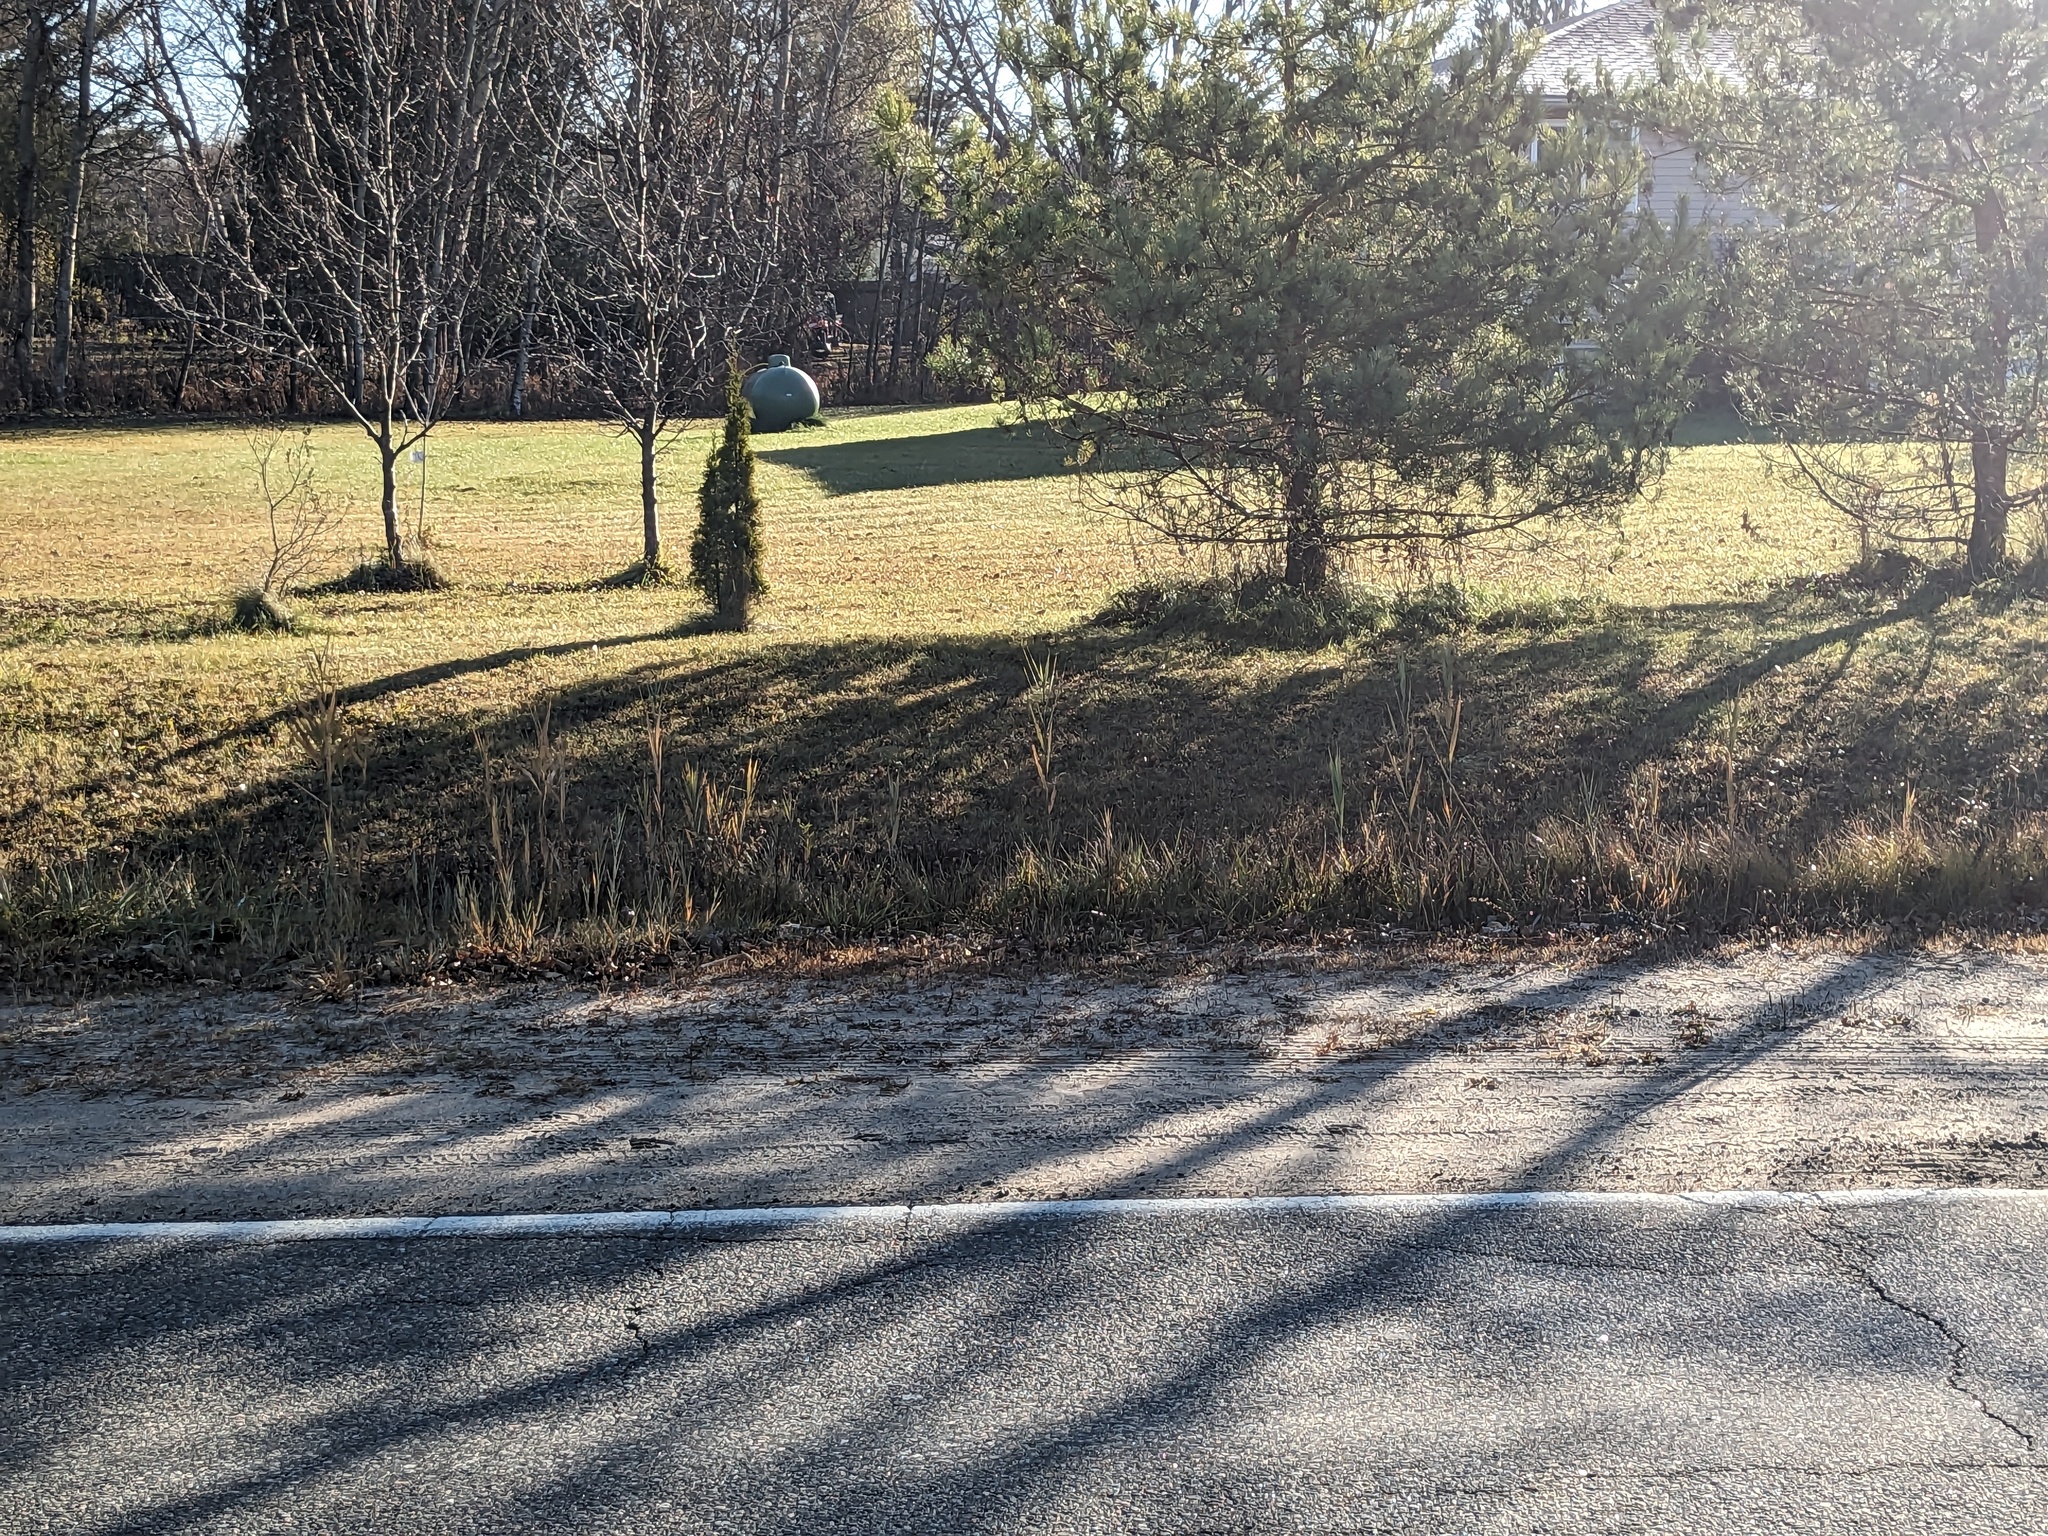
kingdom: Plantae
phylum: Tracheophyta
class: Liliopsida
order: Poales
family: Poaceae
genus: Phragmites
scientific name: Phragmites australis
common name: Common reed
